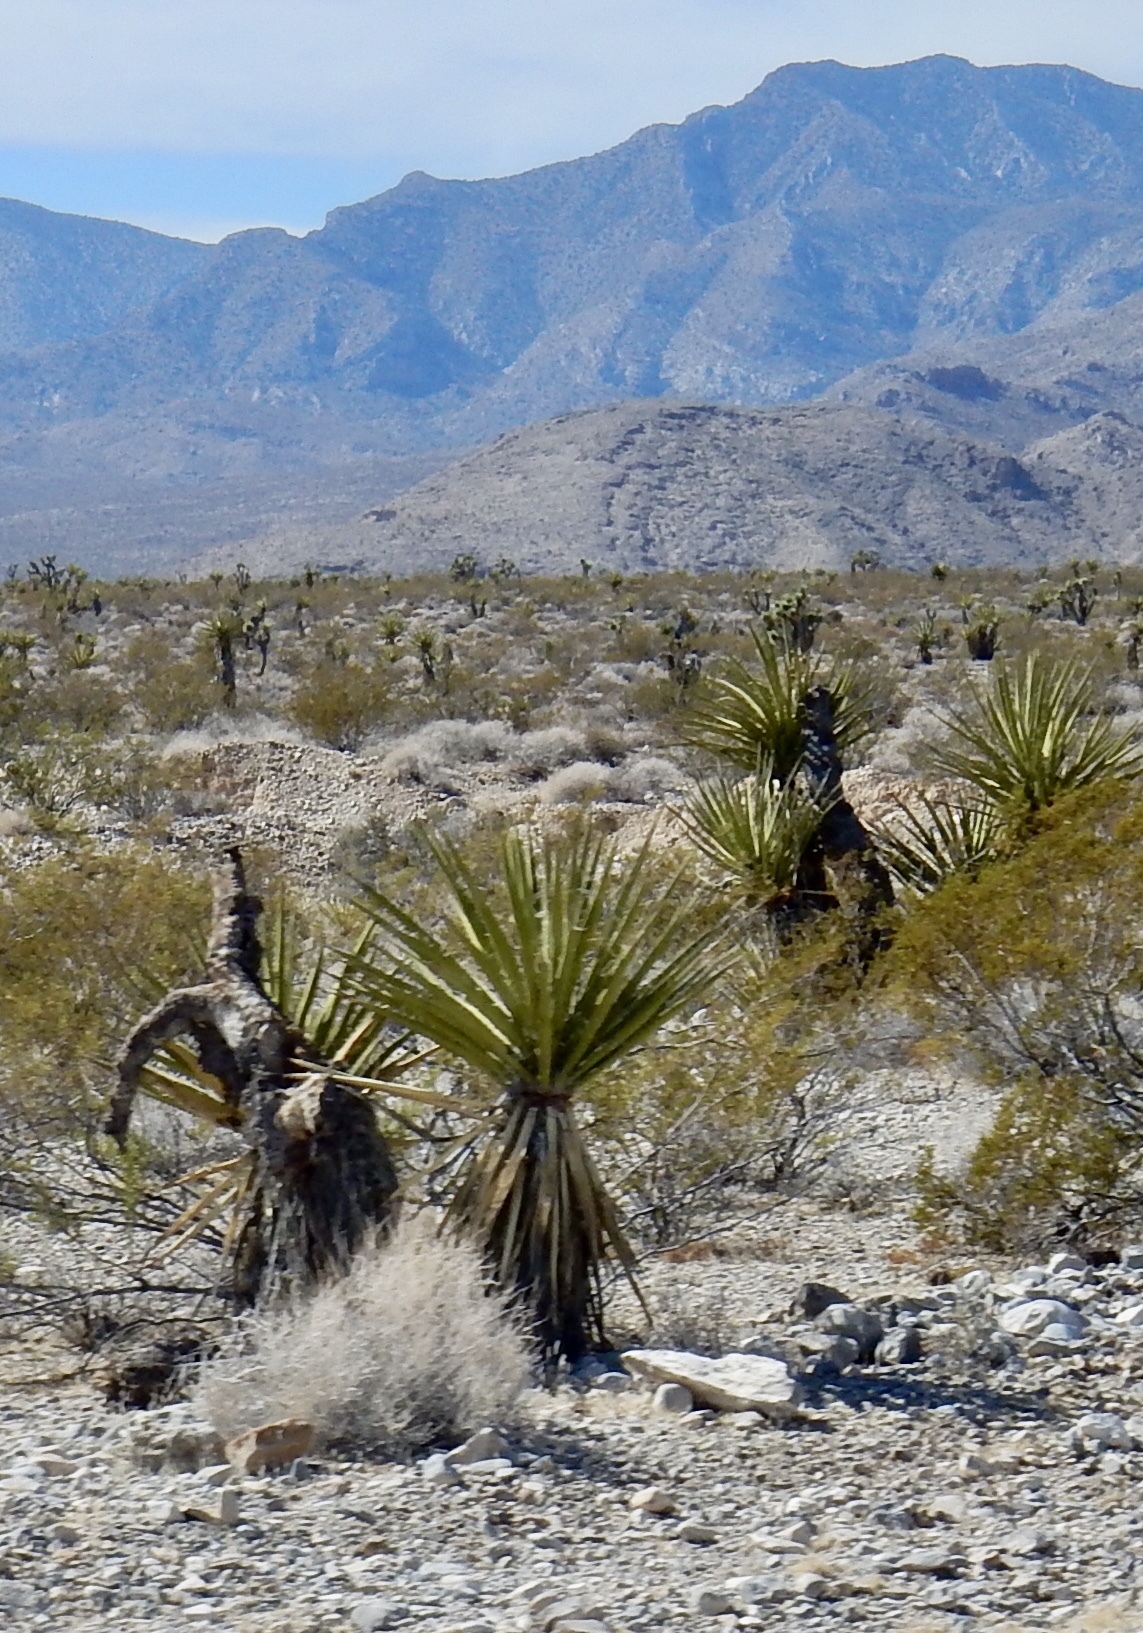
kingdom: Plantae
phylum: Tracheophyta
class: Liliopsida
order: Asparagales
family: Asparagaceae
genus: Yucca
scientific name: Yucca schidigera
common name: Mojave yucca
